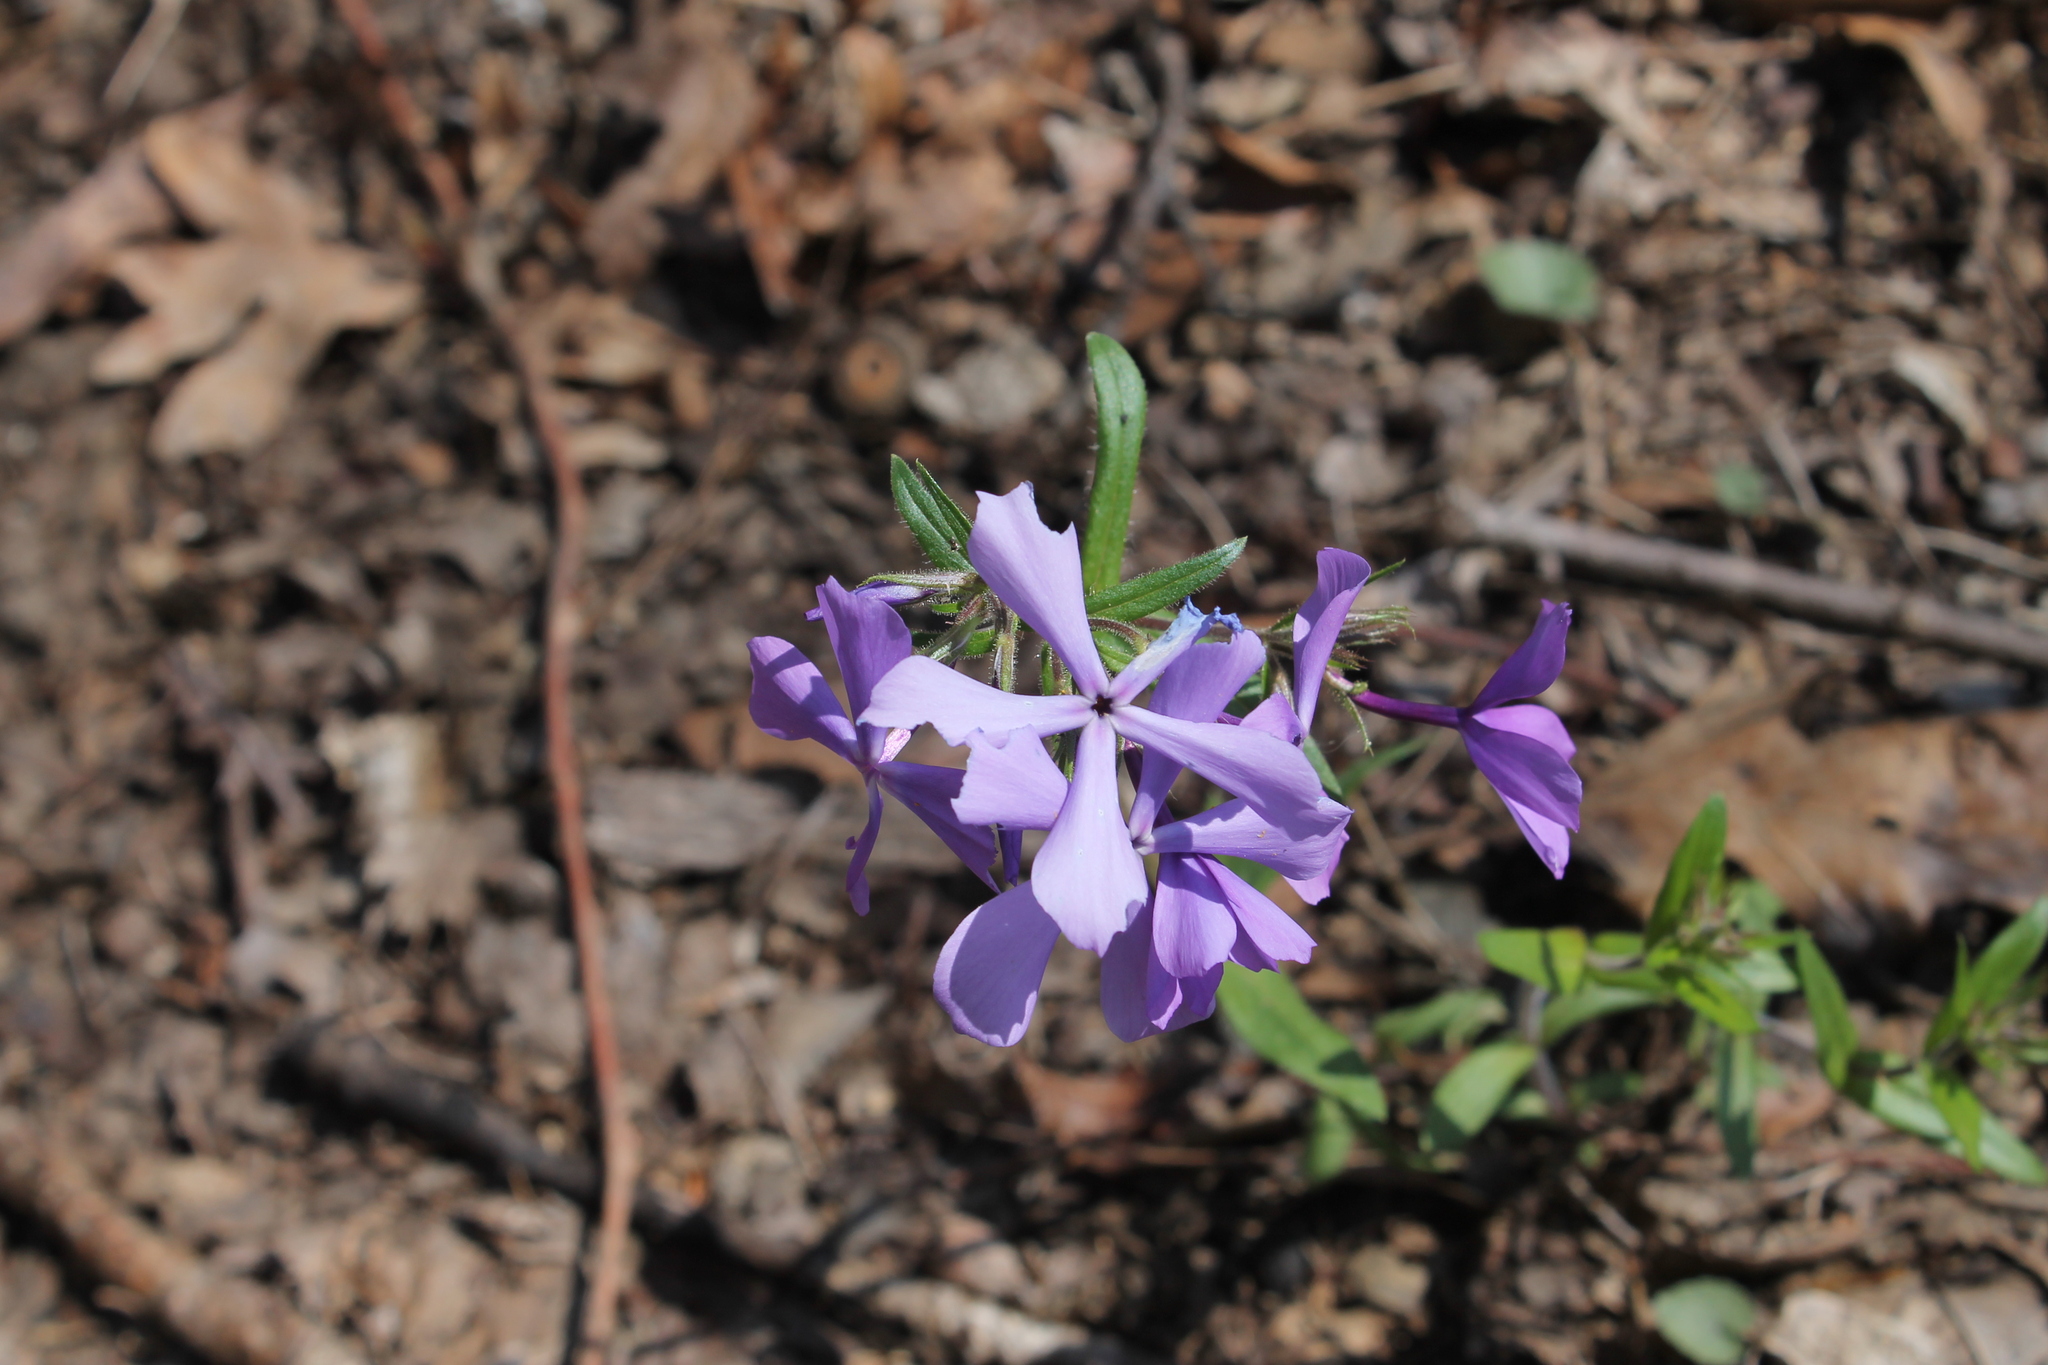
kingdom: Plantae
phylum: Tracheophyta
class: Magnoliopsida
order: Ericales
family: Polemoniaceae
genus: Phlox
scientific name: Phlox divaricata
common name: Blue phlox
